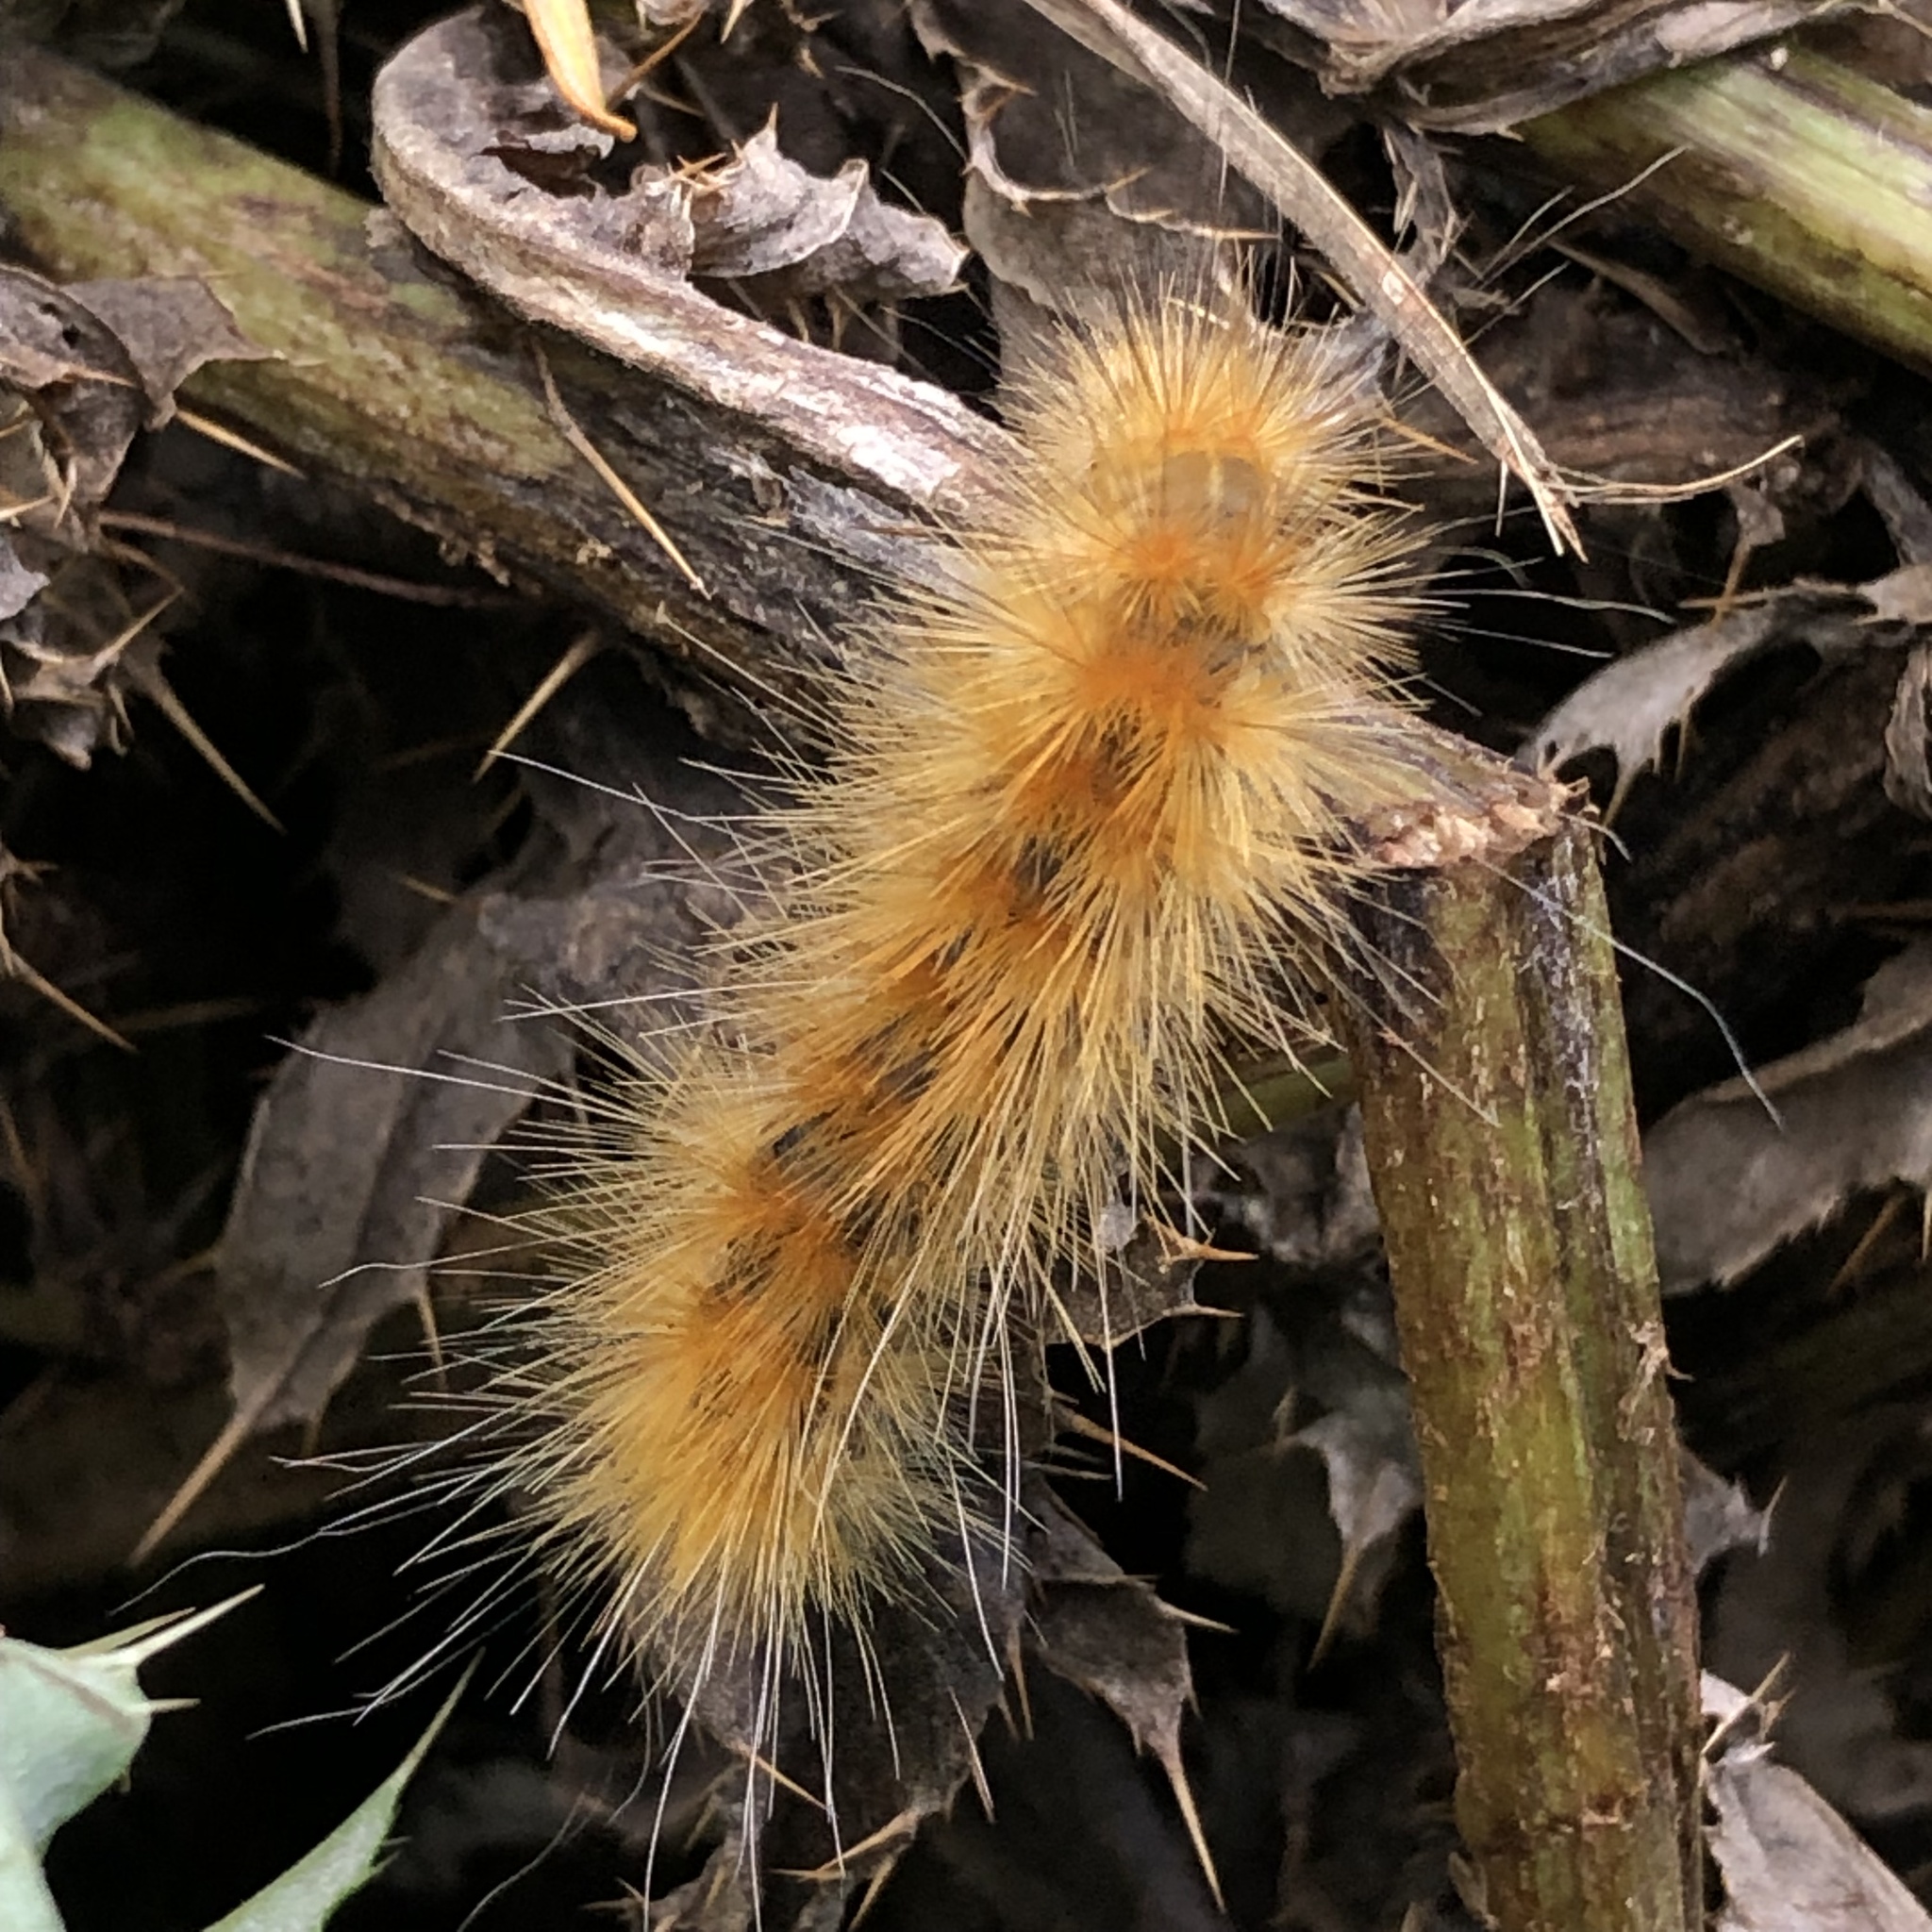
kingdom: Animalia
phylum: Arthropoda
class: Insecta
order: Lepidoptera
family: Erebidae
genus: Spilosoma
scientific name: Spilosoma virginica
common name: Virginia tiger moth
